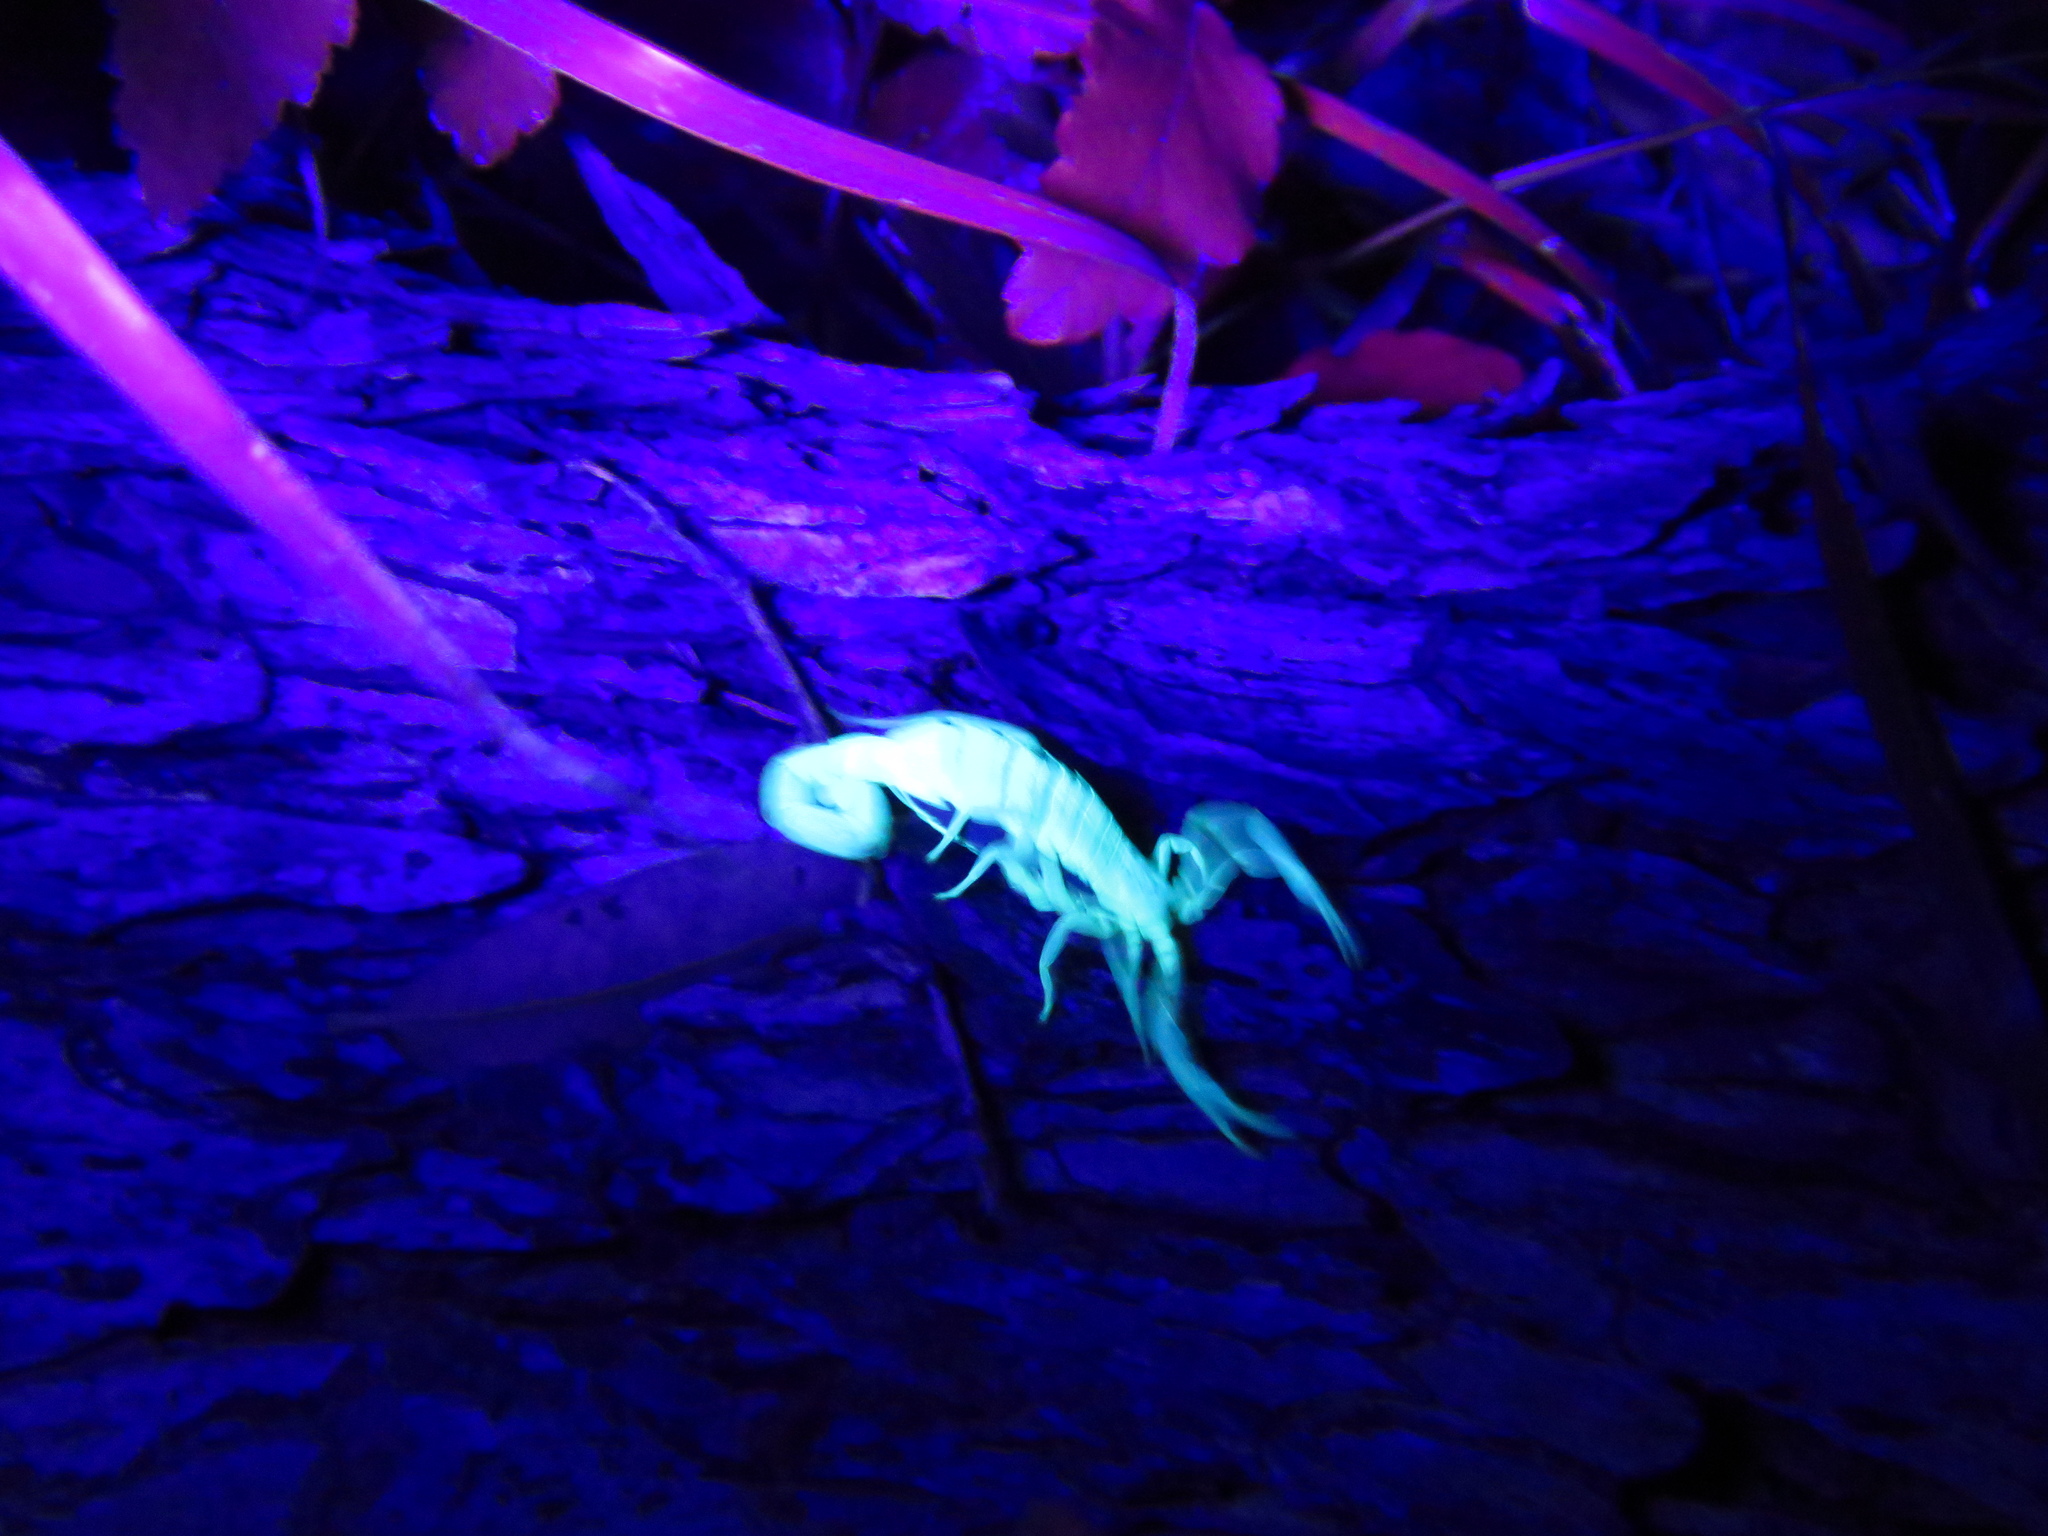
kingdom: Animalia
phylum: Arthropoda
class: Arachnida
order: Scorpiones
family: Buthidae
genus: Centruroides
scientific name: Centruroides vittatus
